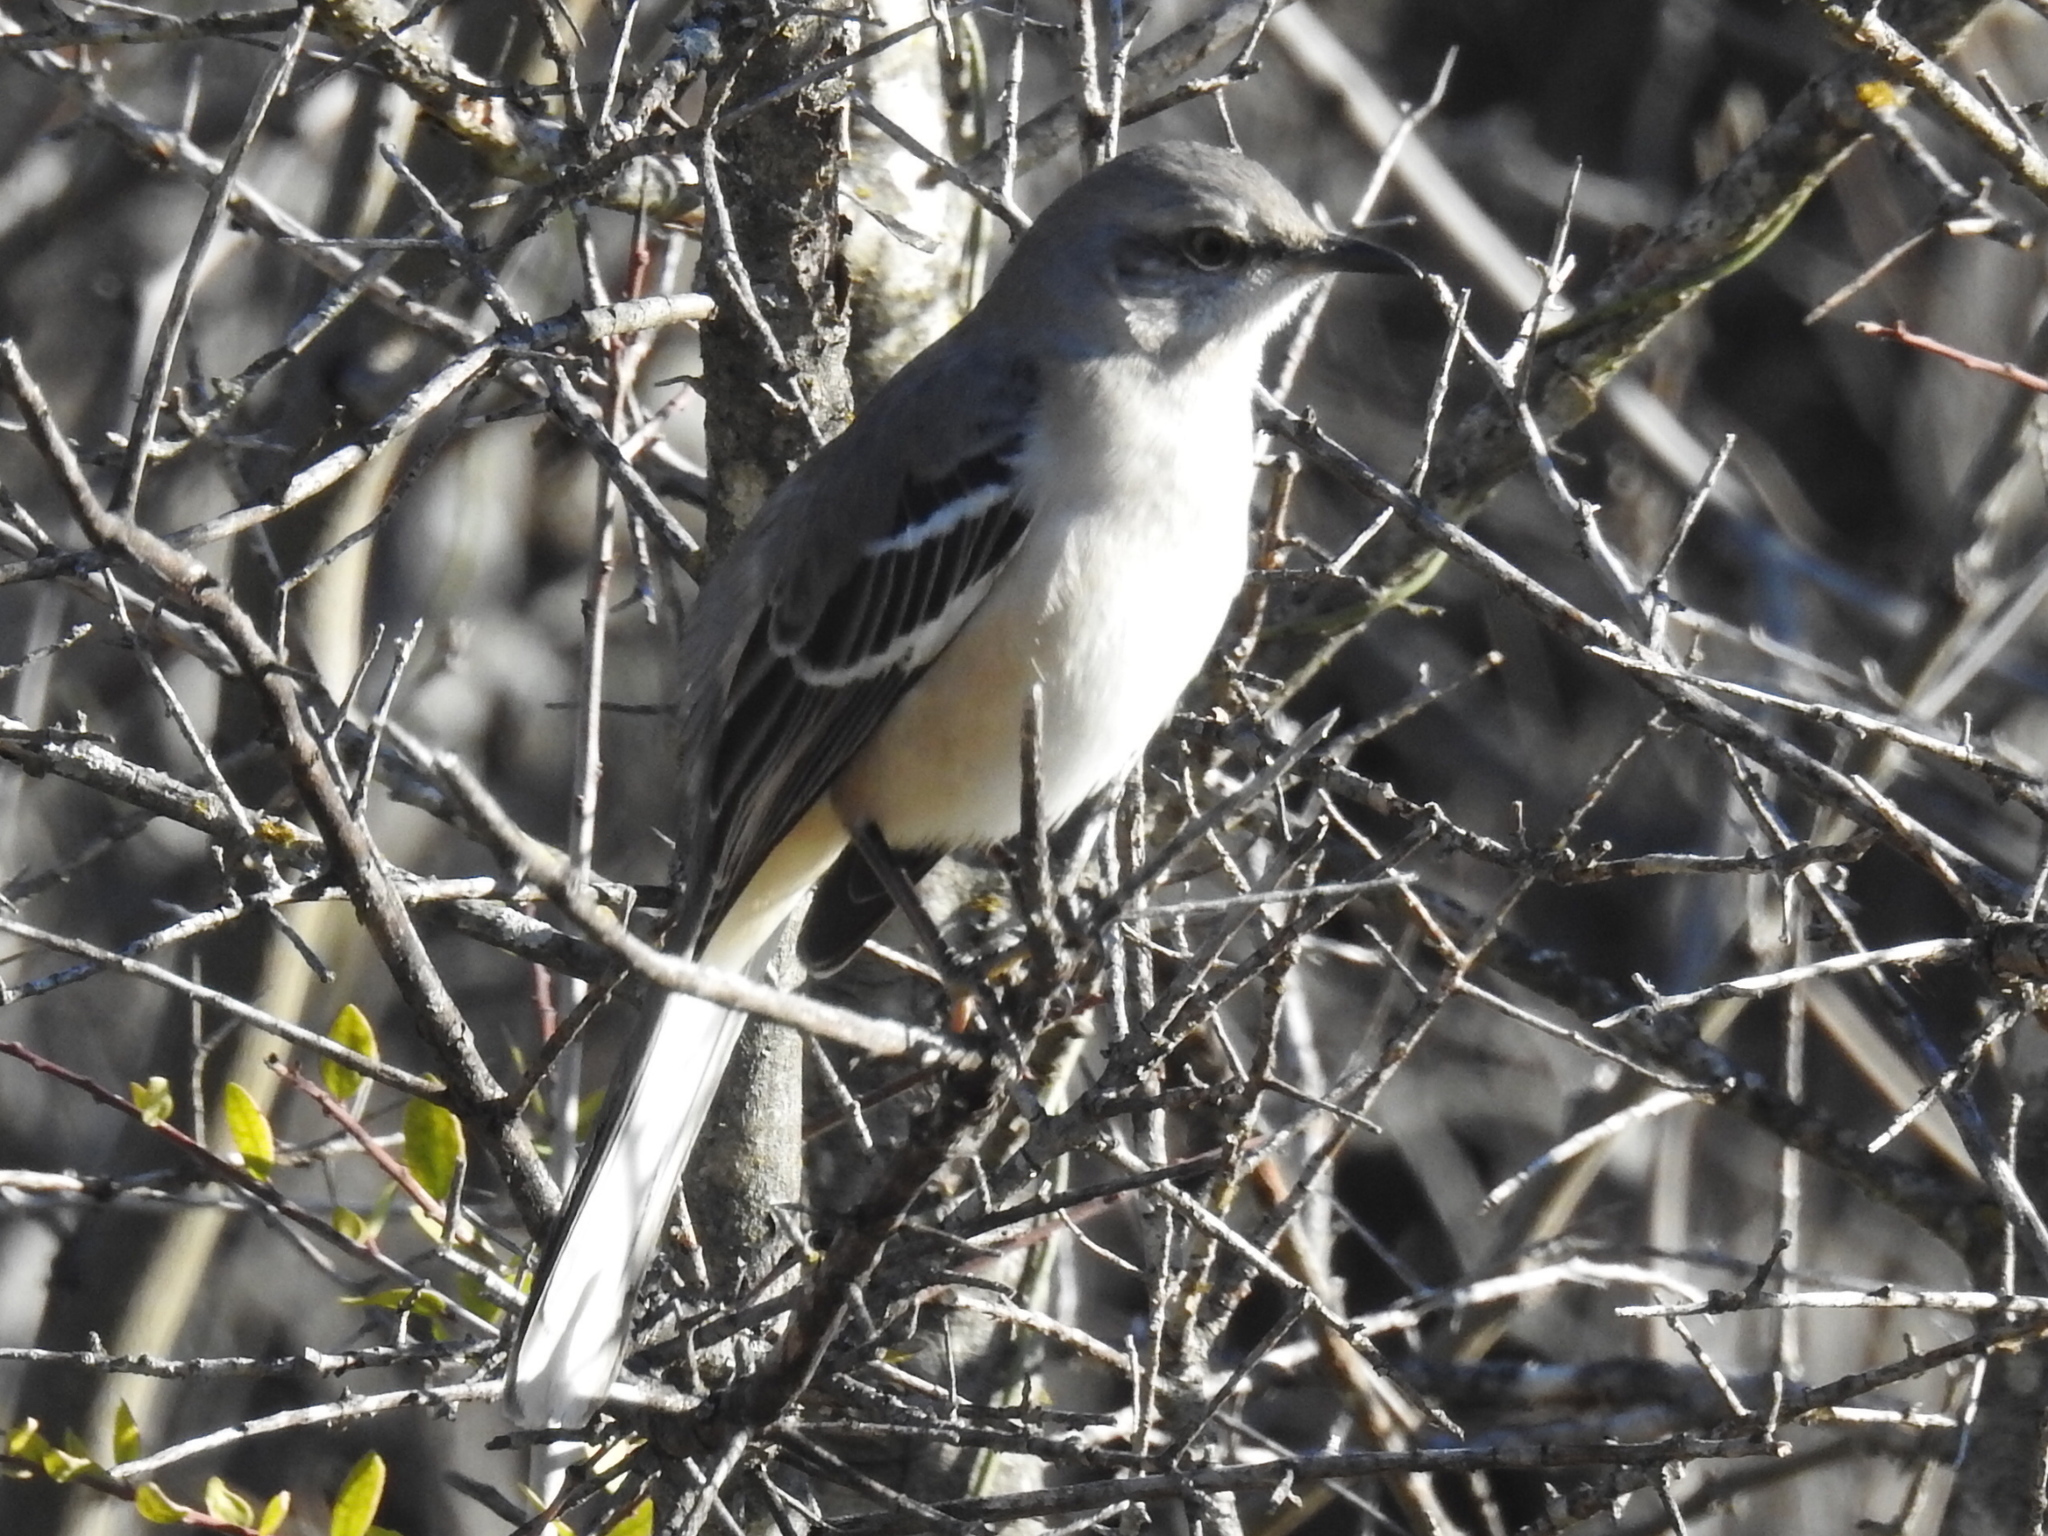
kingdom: Animalia
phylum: Chordata
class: Aves
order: Passeriformes
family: Mimidae
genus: Mimus
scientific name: Mimus polyglottos
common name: Northern mockingbird
